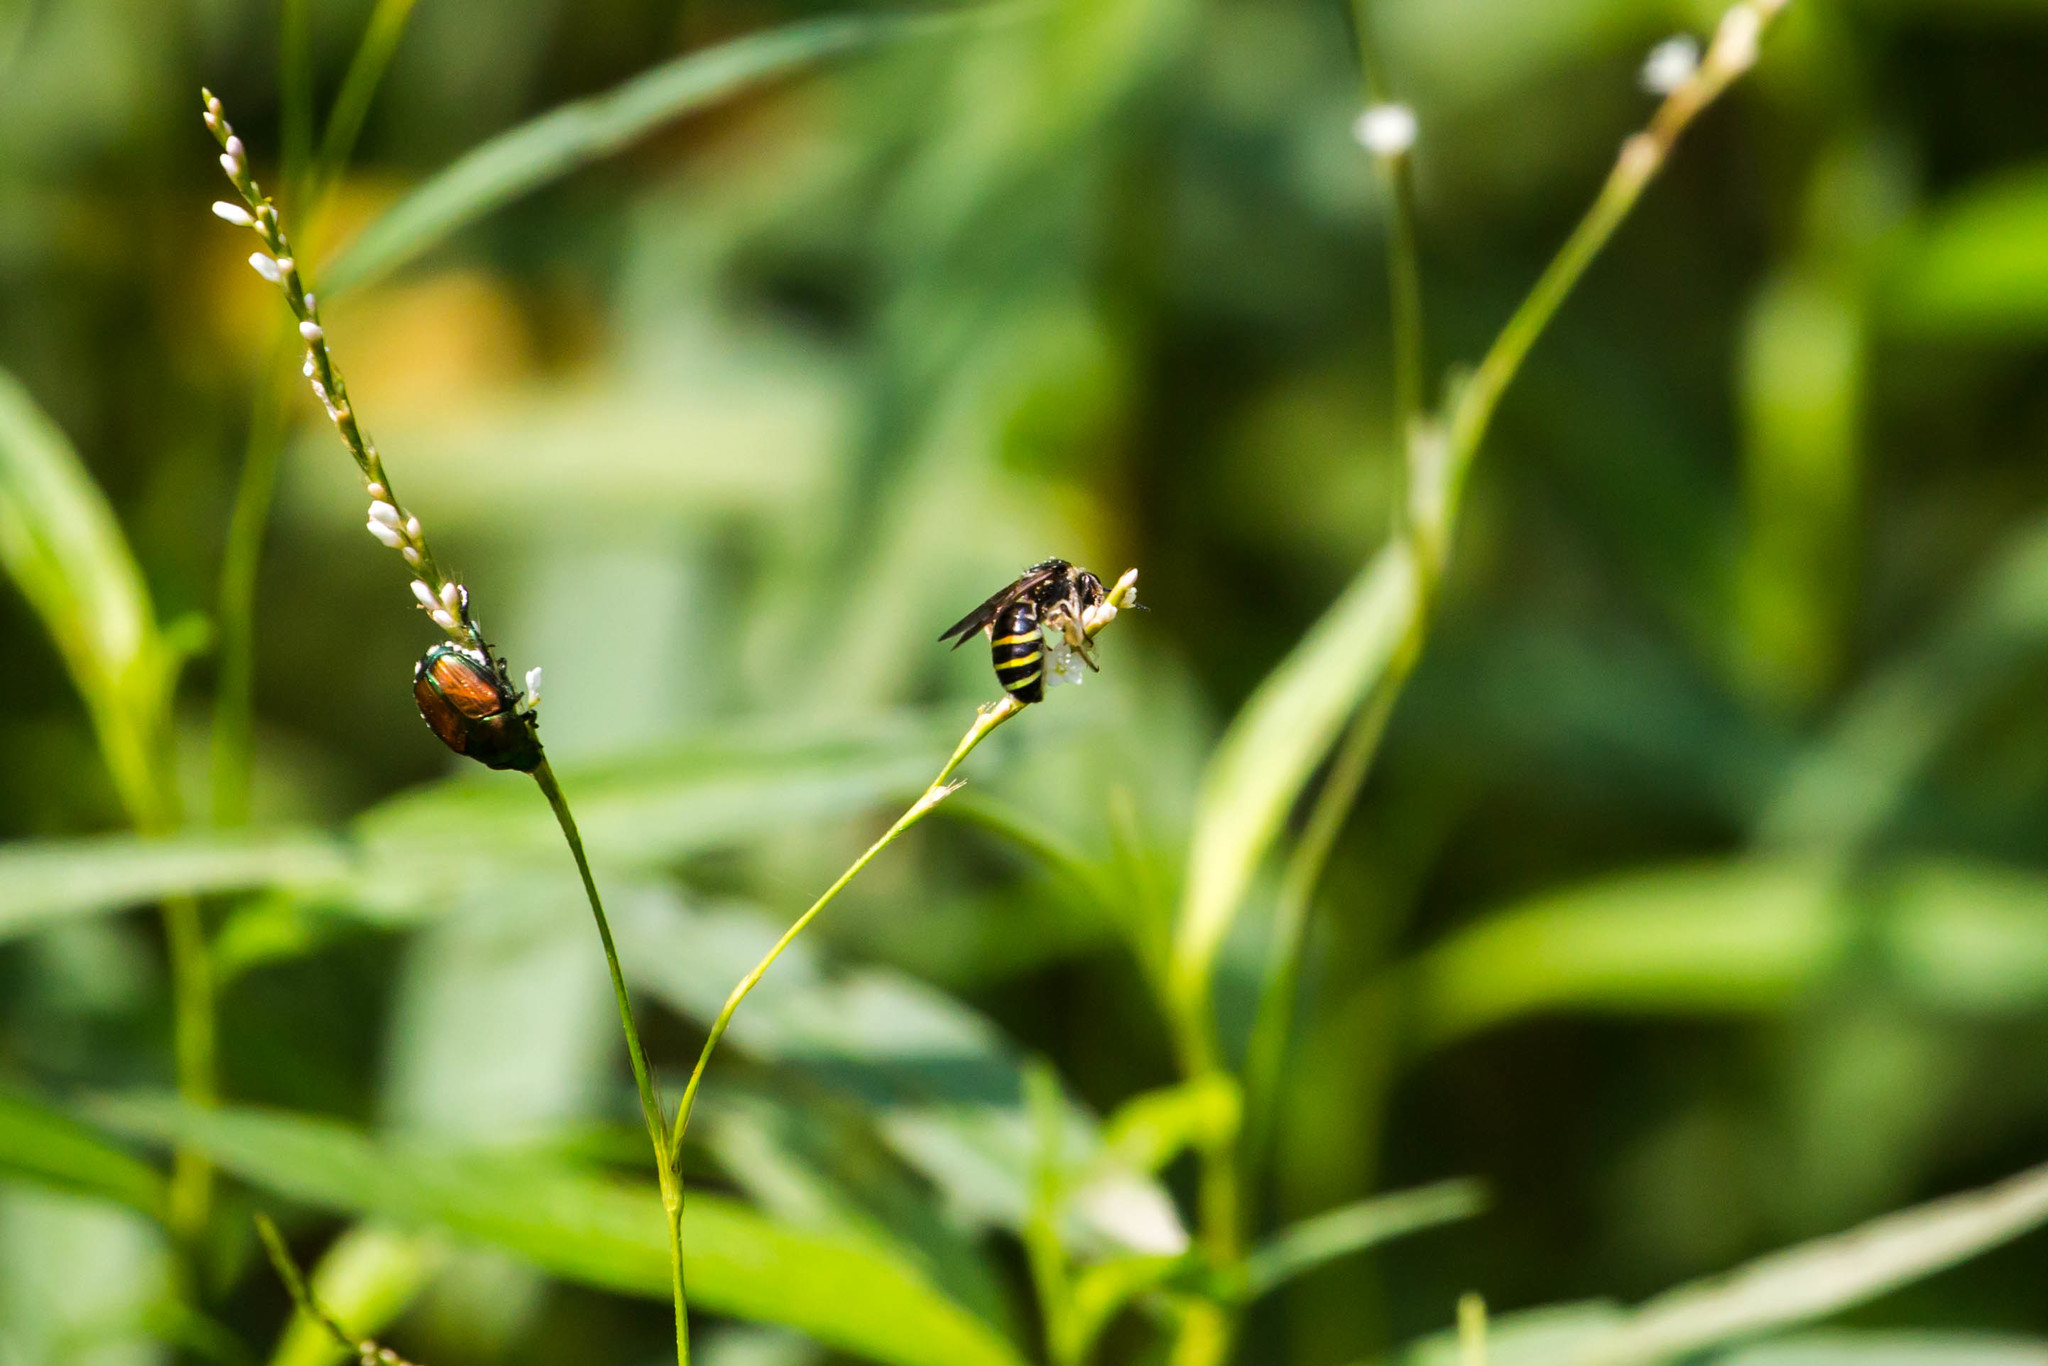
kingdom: Animalia
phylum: Arthropoda
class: Insecta
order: Hymenoptera
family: Halictidae
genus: Nomia
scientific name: Nomia nortoni
